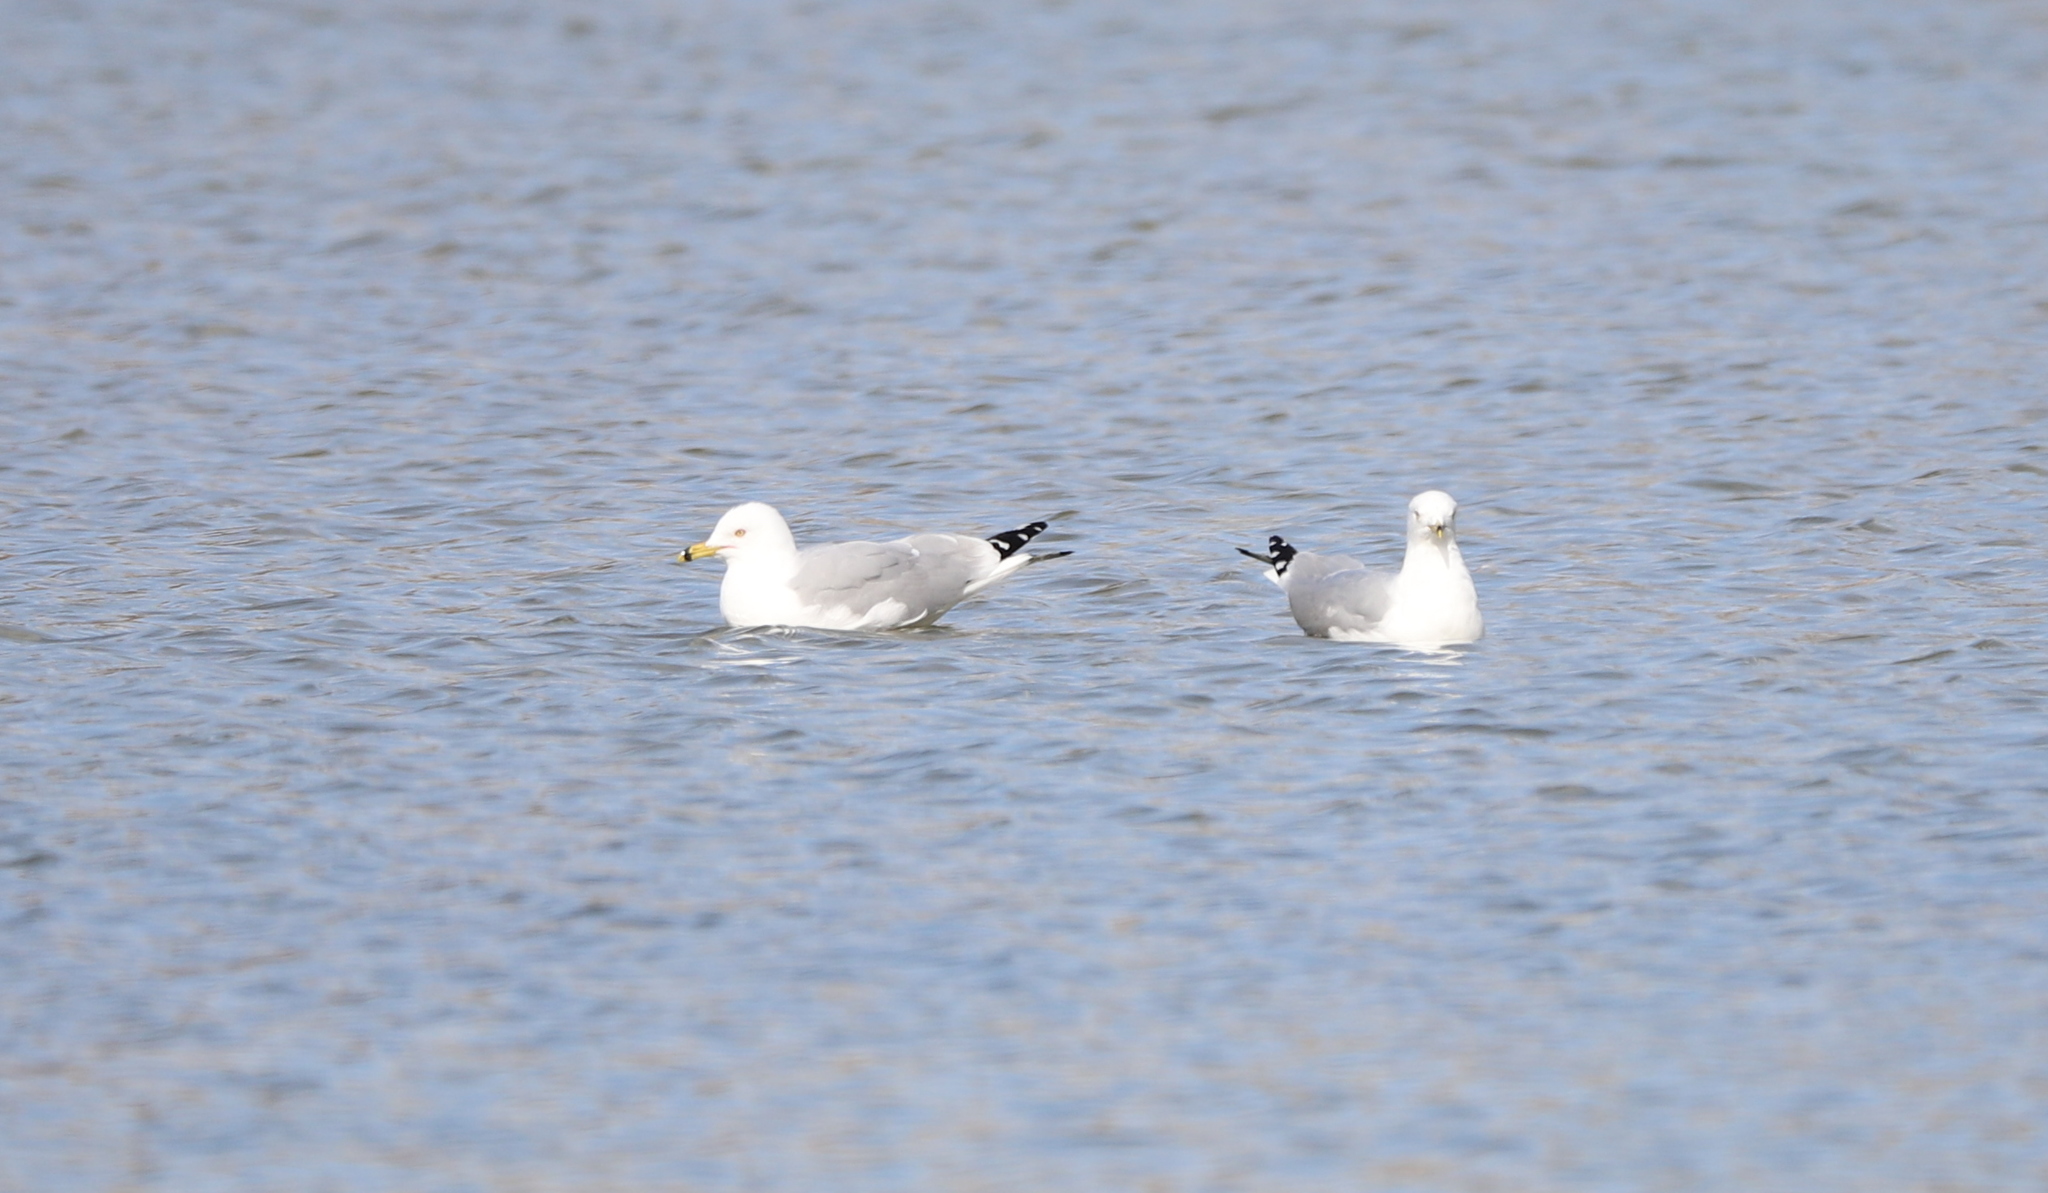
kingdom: Animalia
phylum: Chordata
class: Aves
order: Charadriiformes
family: Laridae
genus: Larus
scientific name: Larus delawarensis
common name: Ring-billed gull
